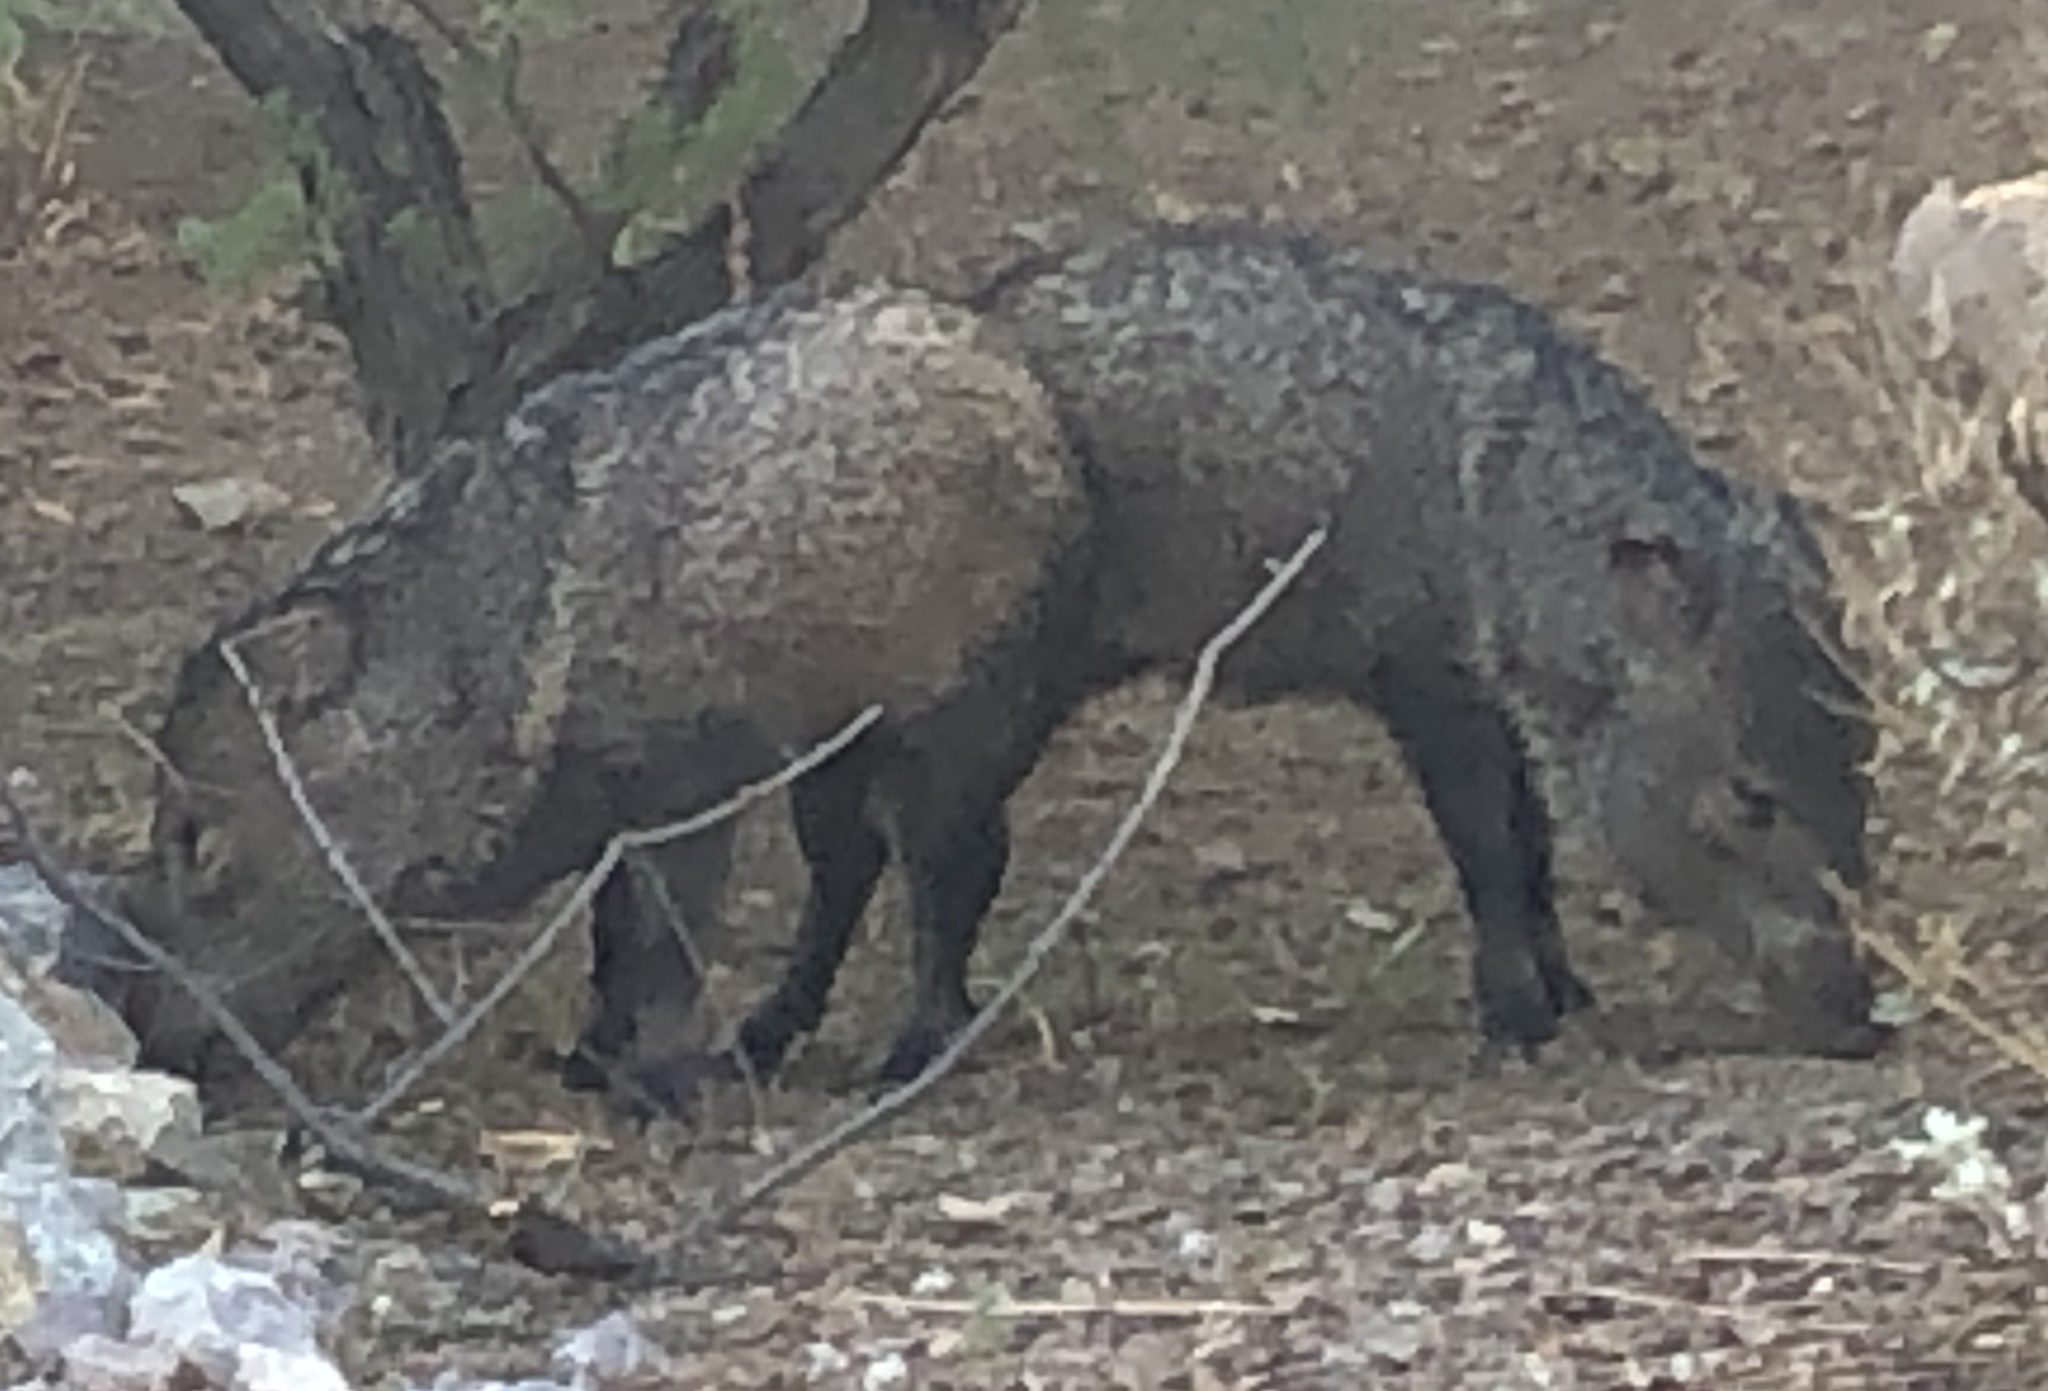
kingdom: Animalia
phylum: Chordata
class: Mammalia
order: Artiodactyla
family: Tayassuidae
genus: Pecari
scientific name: Pecari tajacu
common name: Collared peccary
